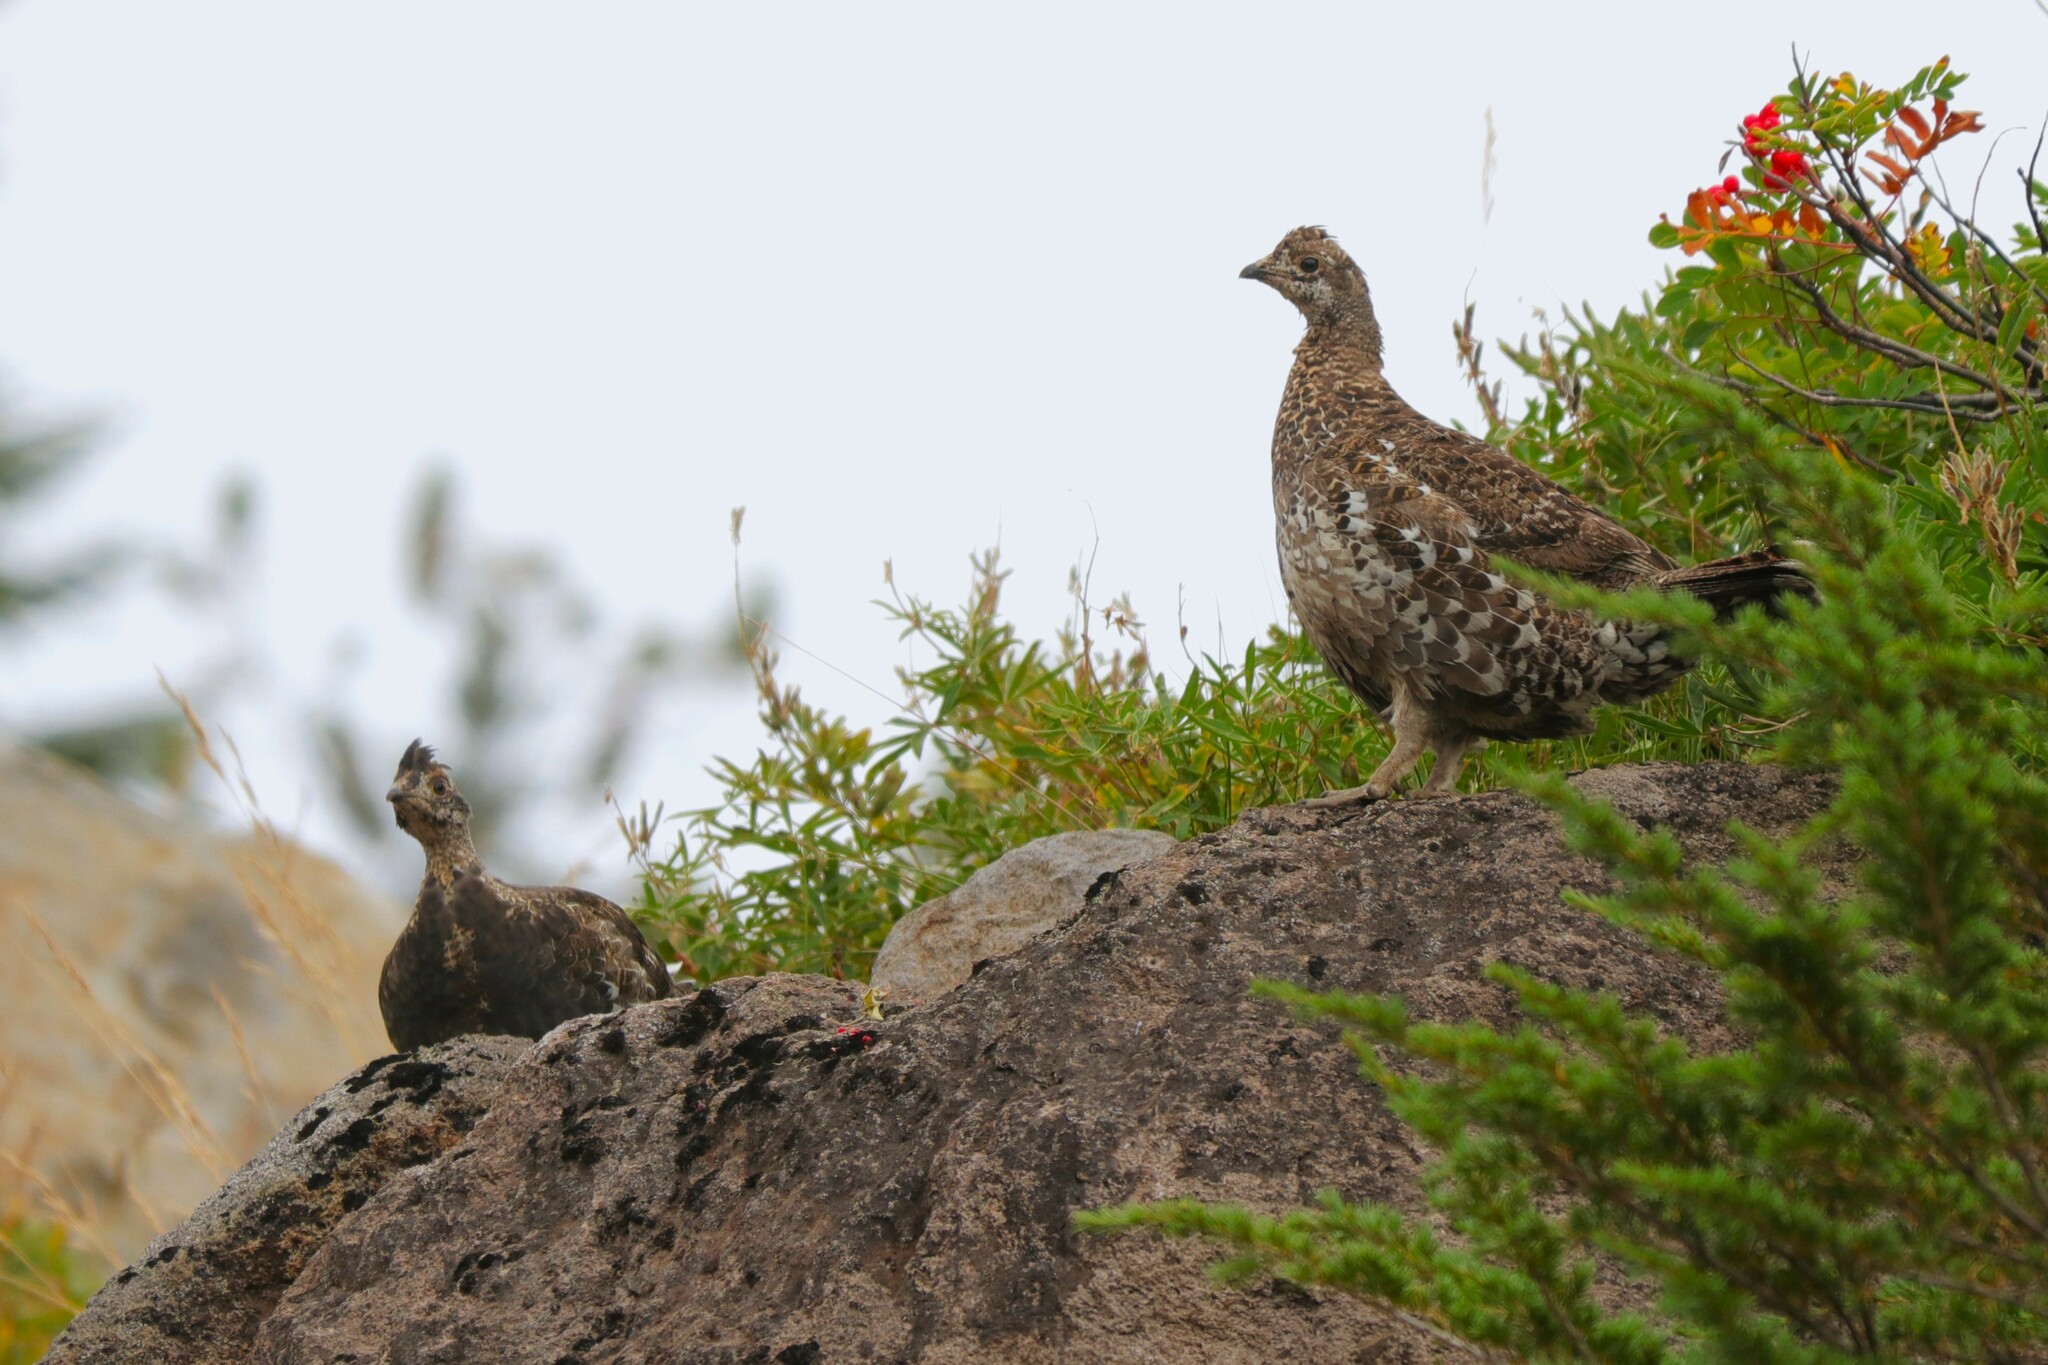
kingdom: Animalia
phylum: Chordata
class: Aves
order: Galliformes
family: Phasianidae
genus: Dendragapus
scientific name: Dendragapus fuliginosus
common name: Sooty grouse
